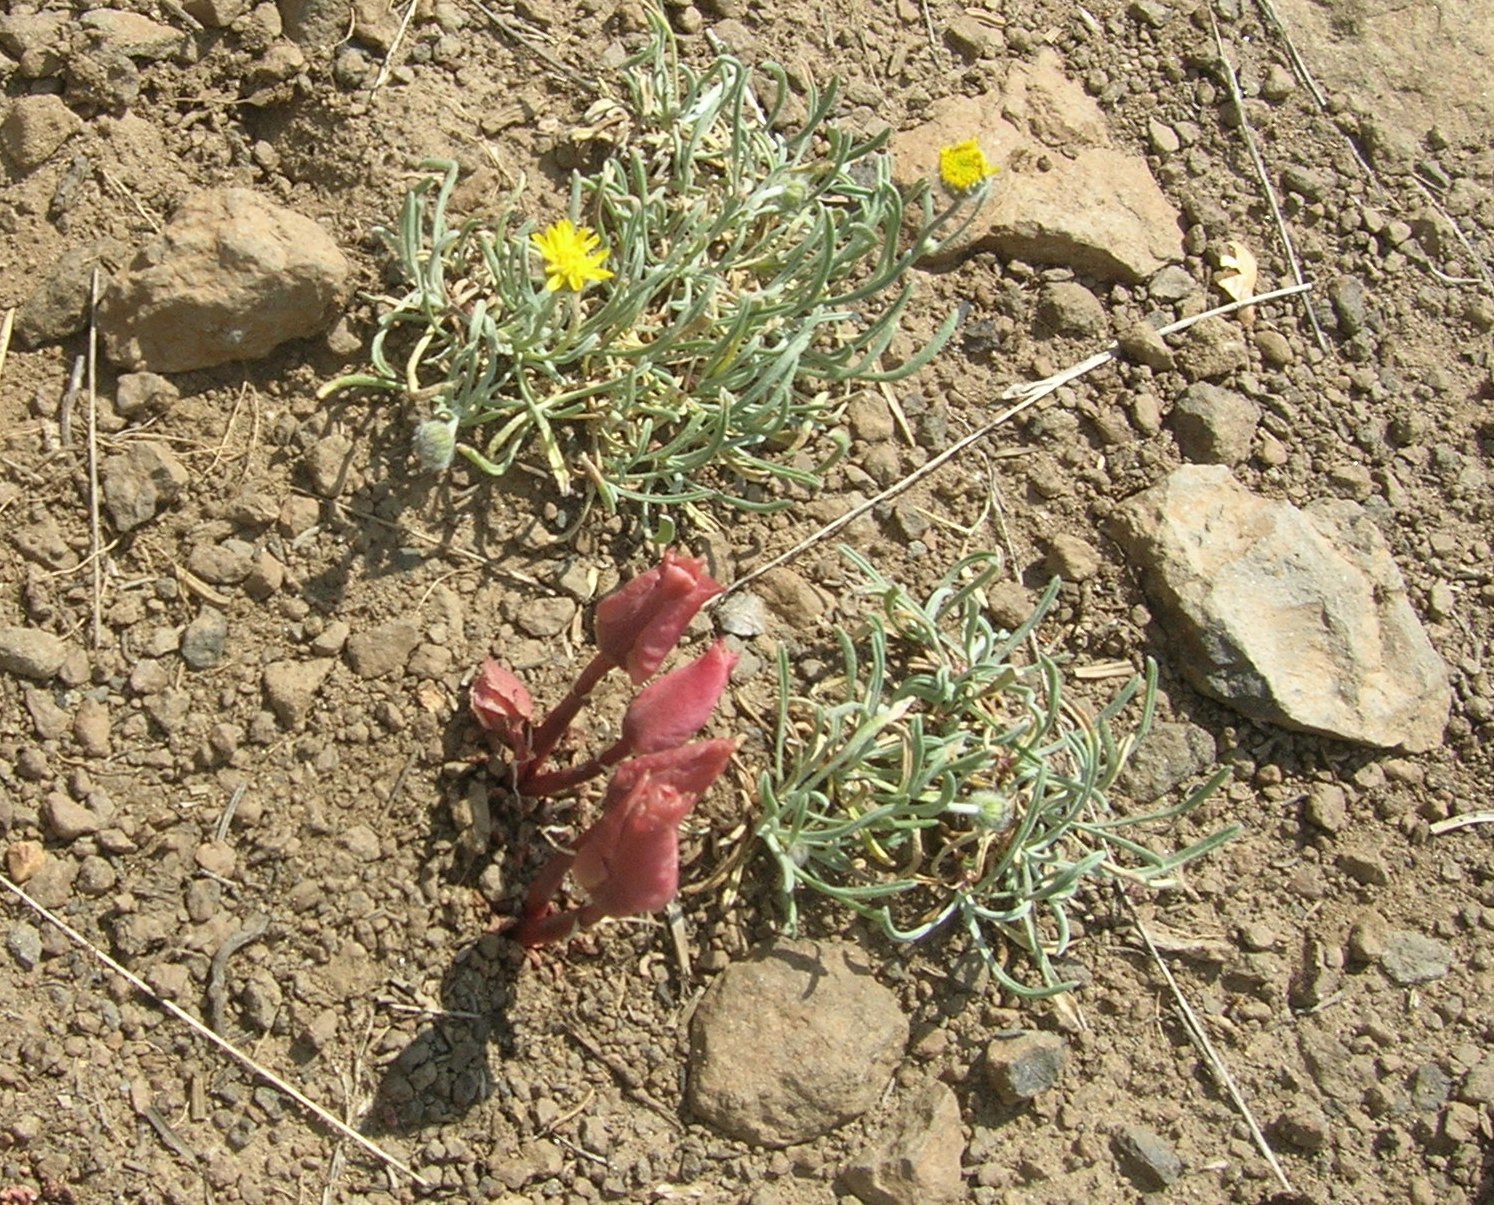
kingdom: Plantae
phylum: Tracheophyta
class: Magnoliopsida
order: Caryophyllales
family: Montiaceae
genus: Lewisia
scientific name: Lewisia rediviva
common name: Bitter-root
